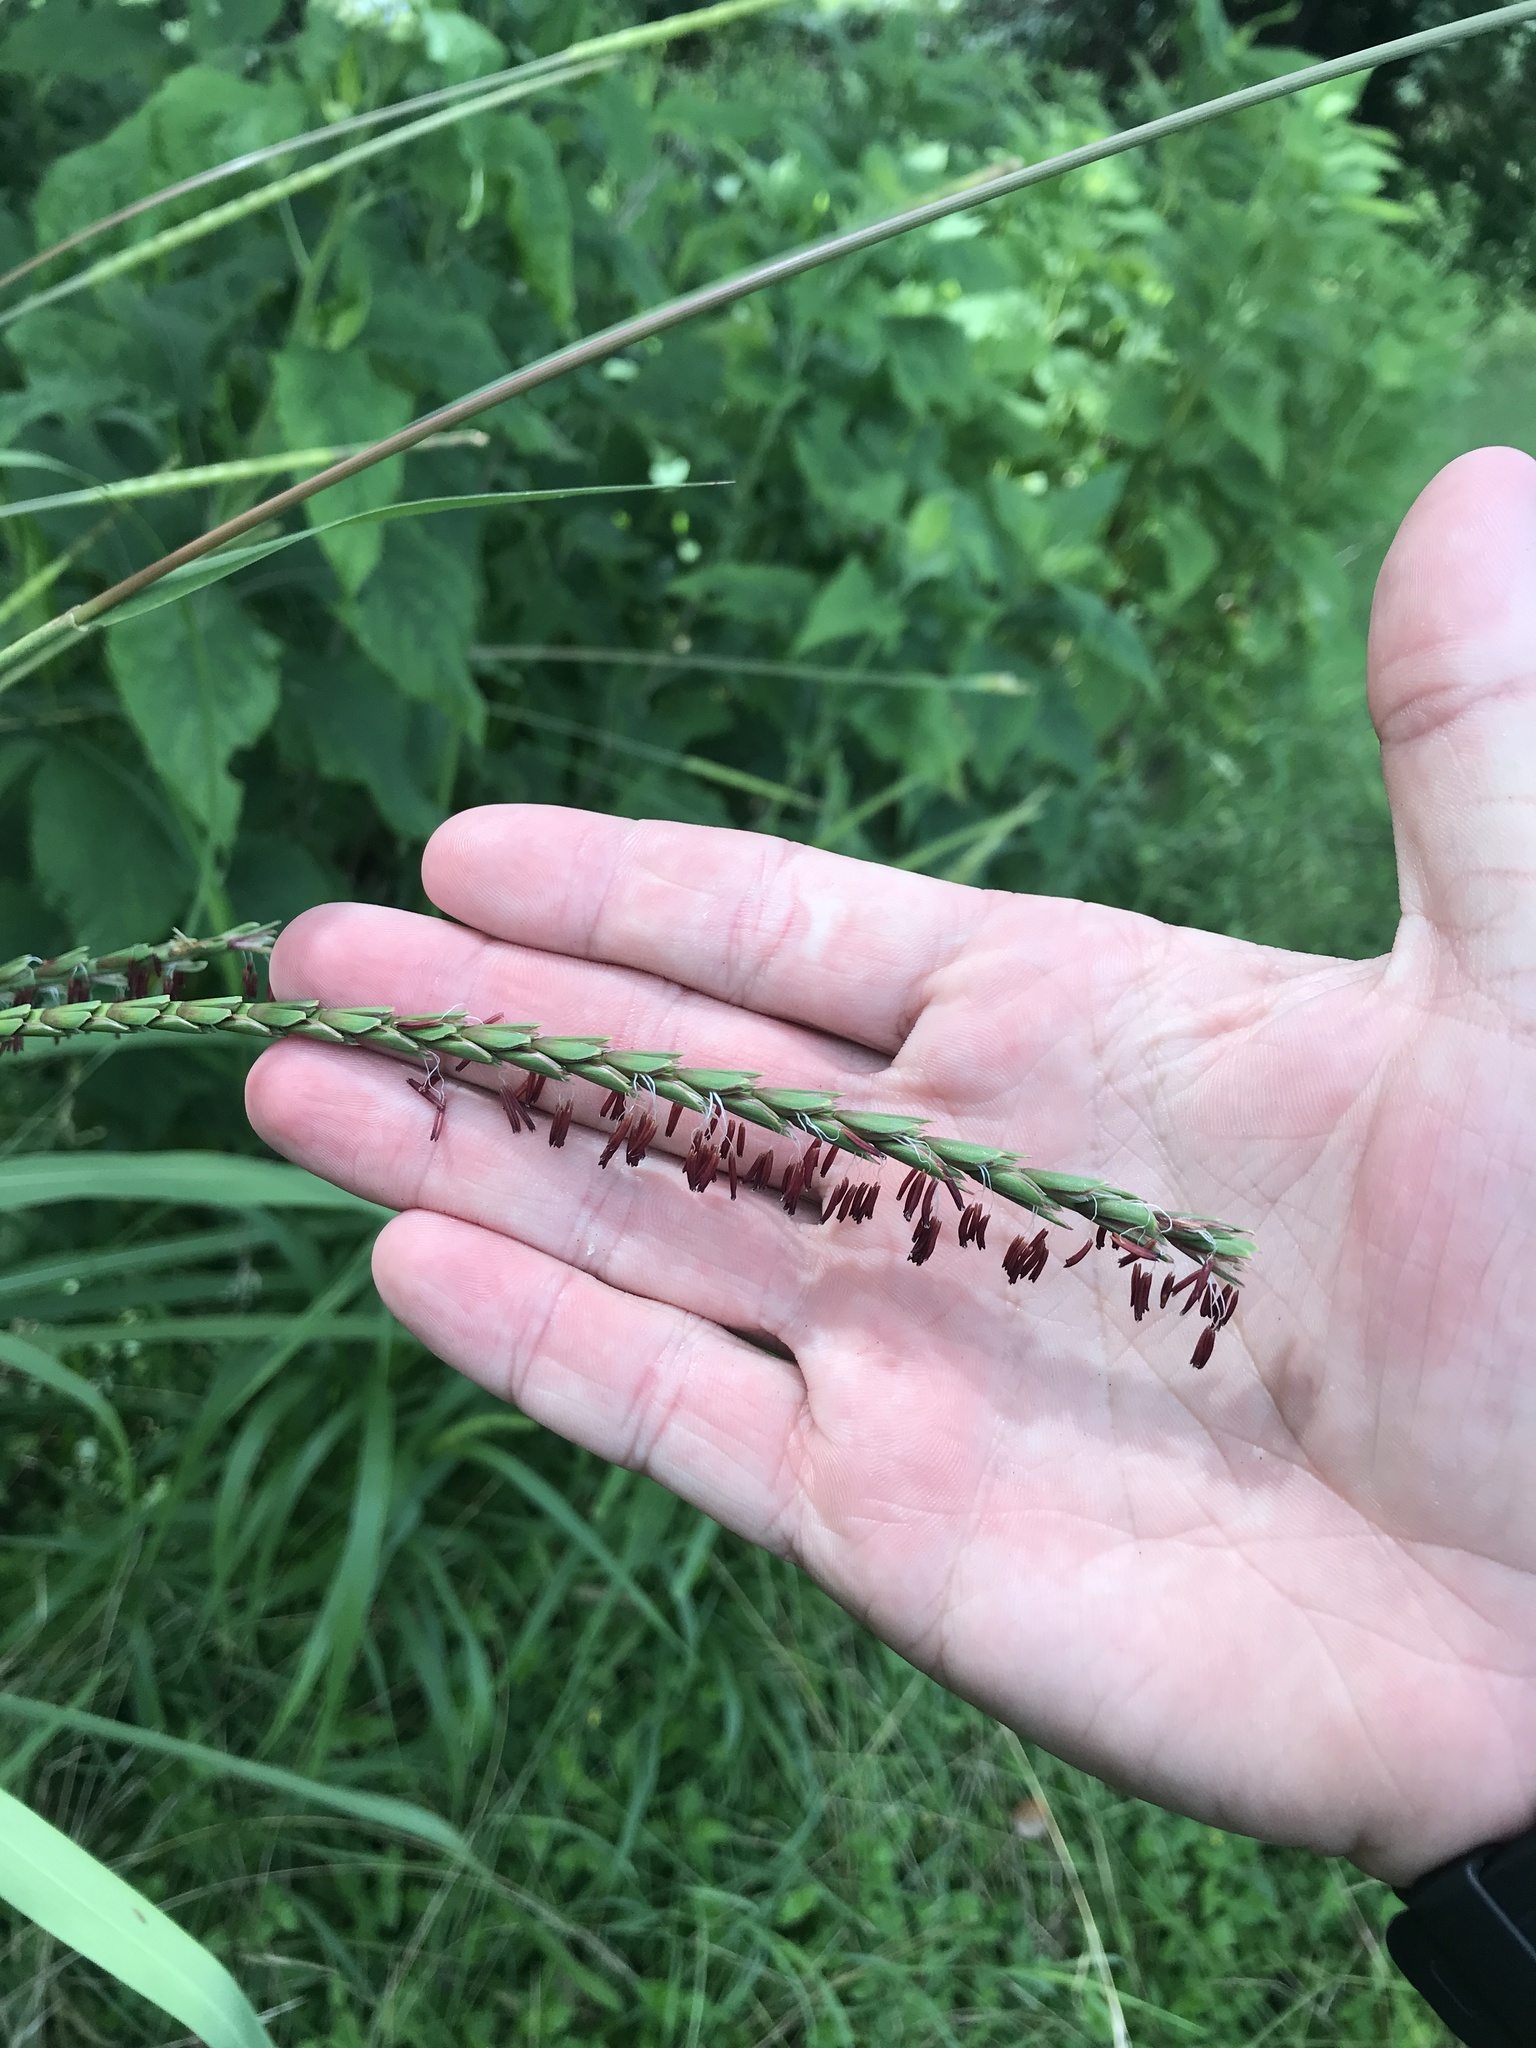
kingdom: Plantae
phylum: Tracheophyta
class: Liliopsida
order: Poales
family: Poaceae
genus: Tripsacum
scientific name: Tripsacum dactyloides
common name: Buffalo-grass
